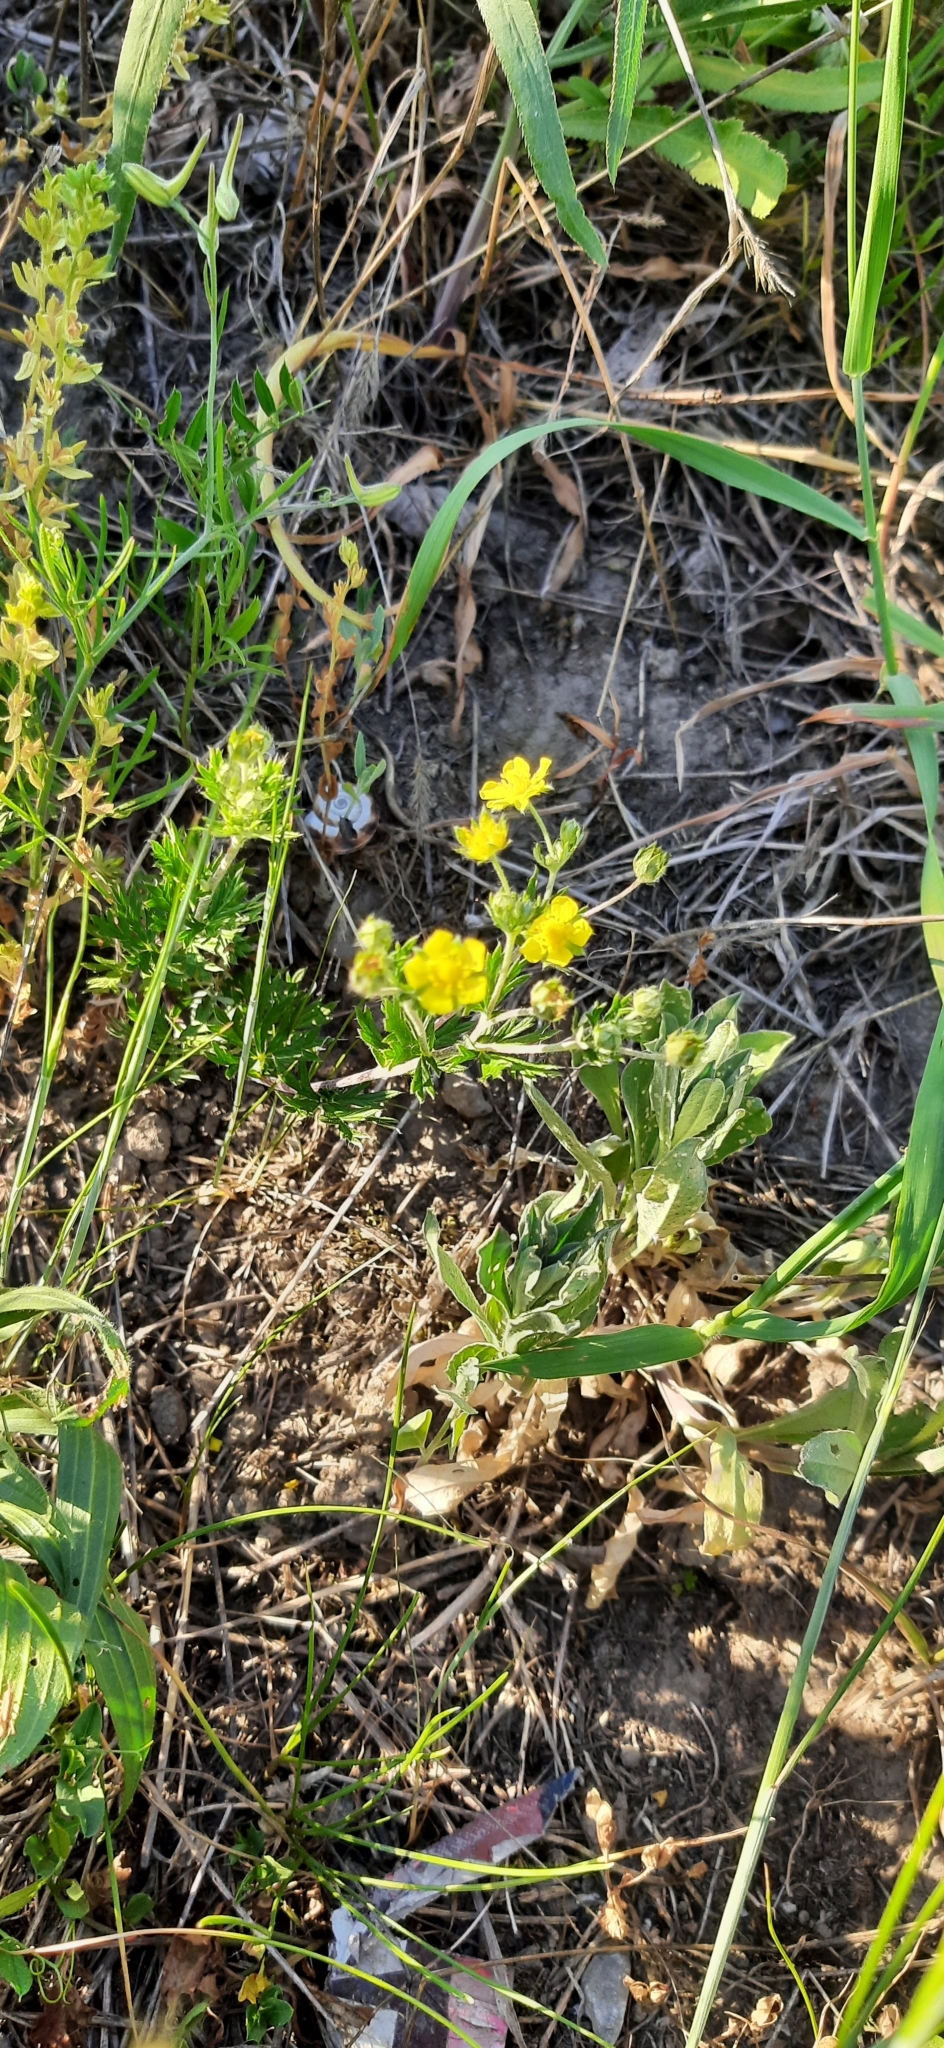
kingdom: Plantae
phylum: Tracheophyta
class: Magnoliopsida
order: Rosales
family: Rosaceae
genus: Potentilla
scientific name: Potentilla argentea
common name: Hoary cinquefoil
